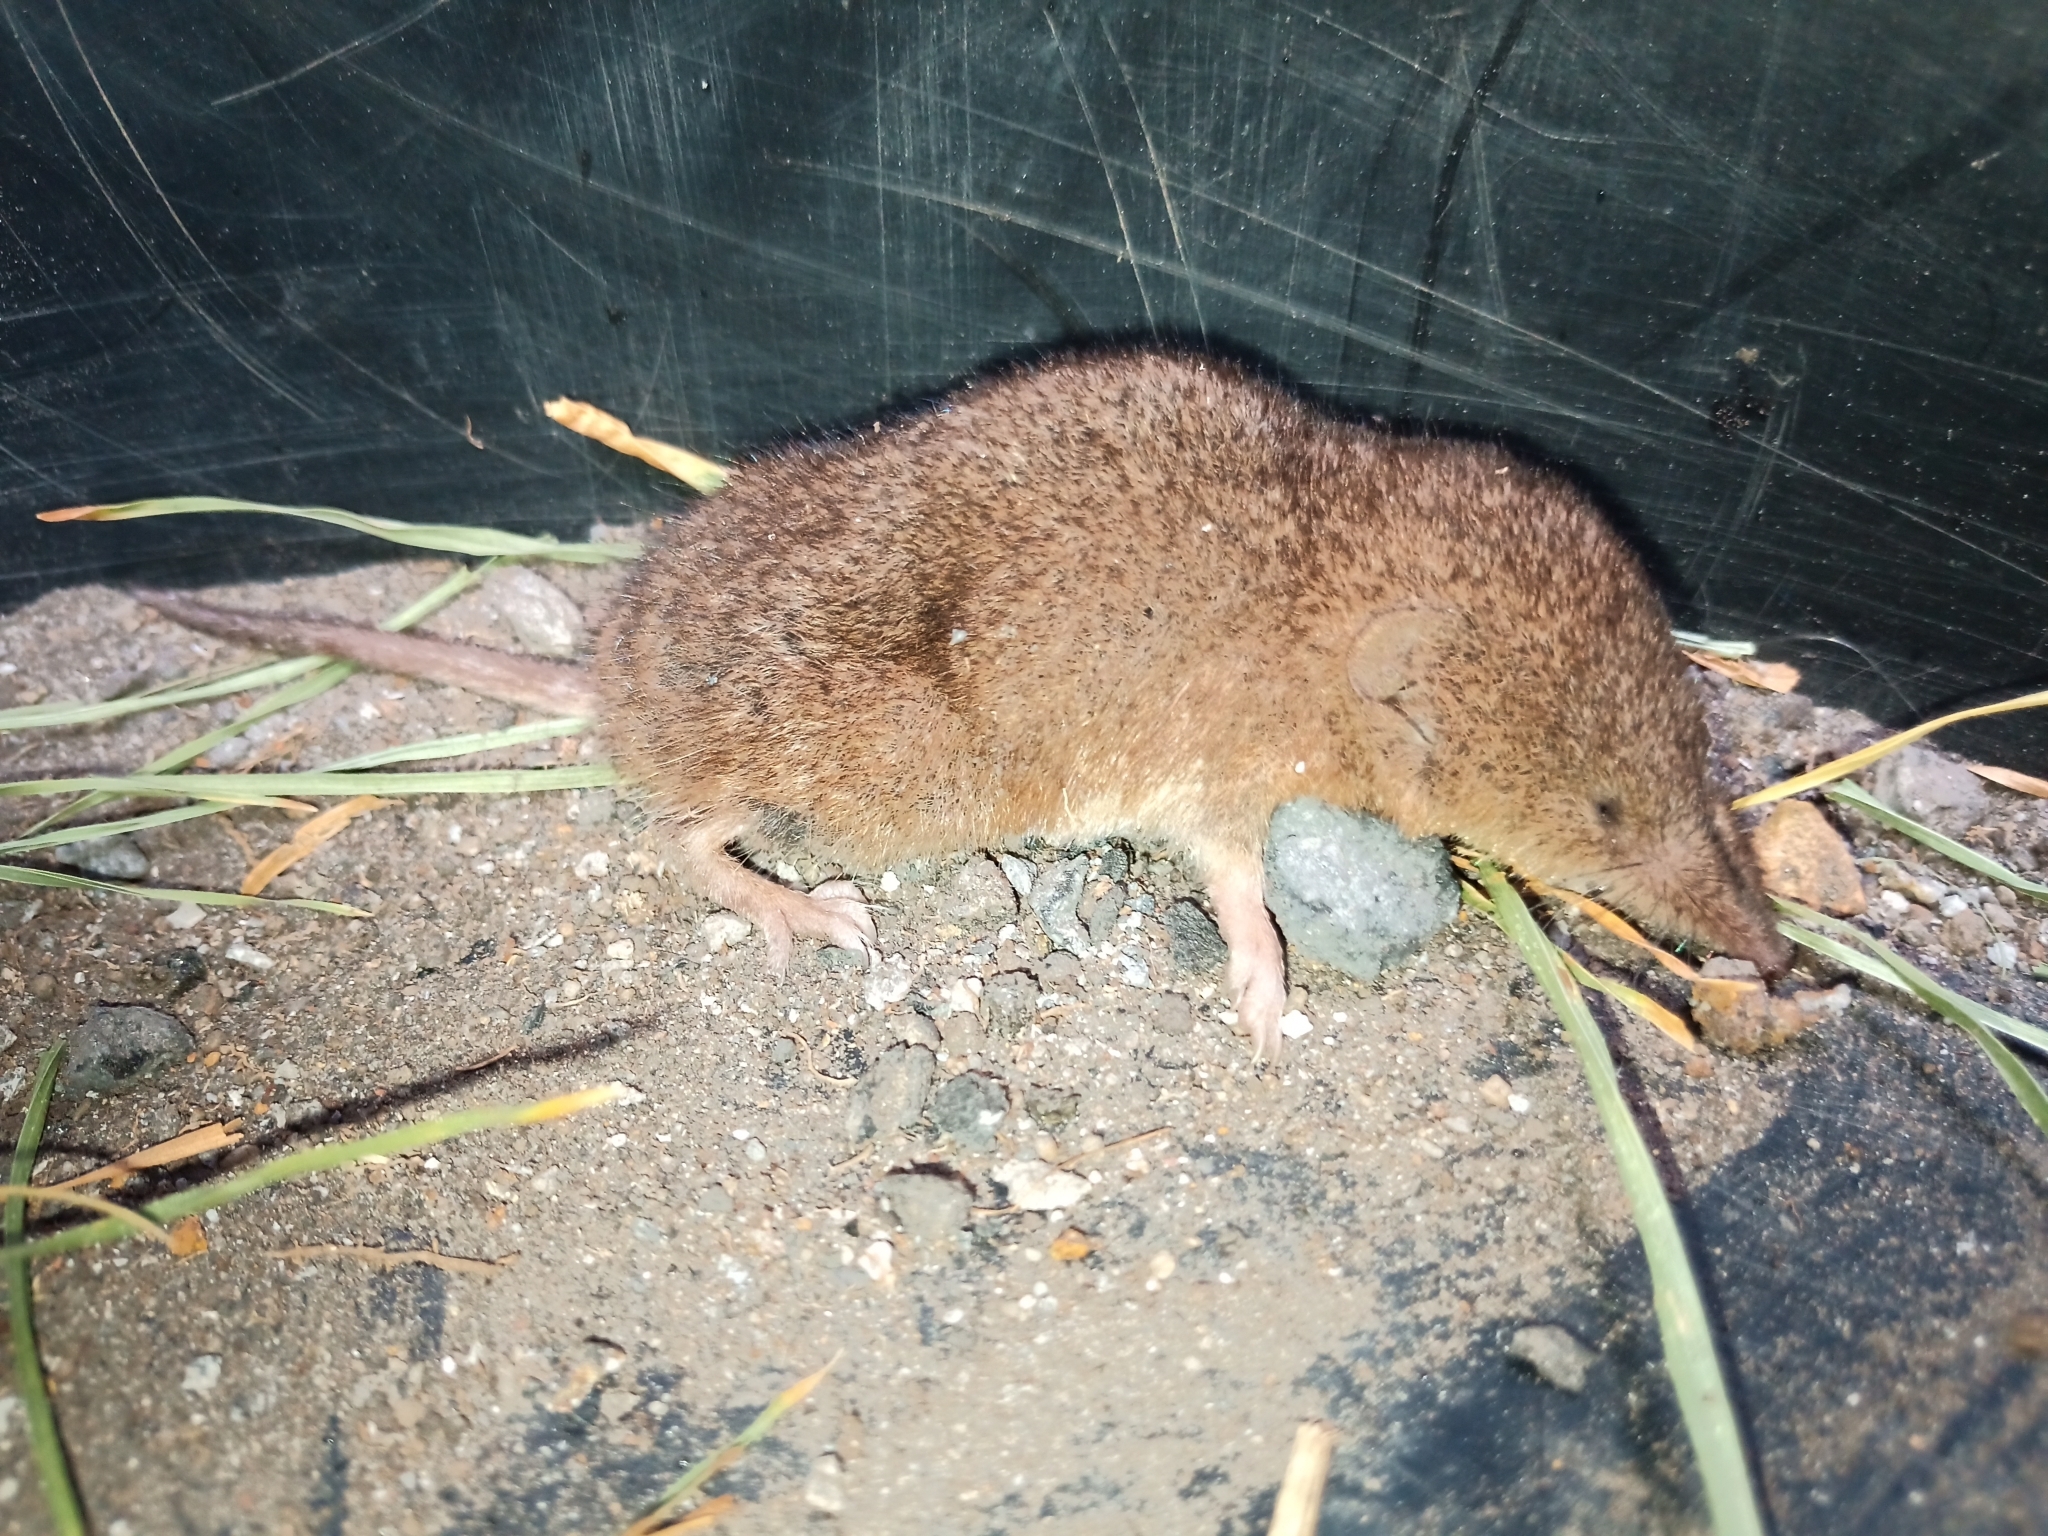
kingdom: Animalia
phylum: Chordata
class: Mammalia
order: Soricomorpha
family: Soricidae
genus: Myosorex
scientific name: Myosorex varius
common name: Forest shrew
